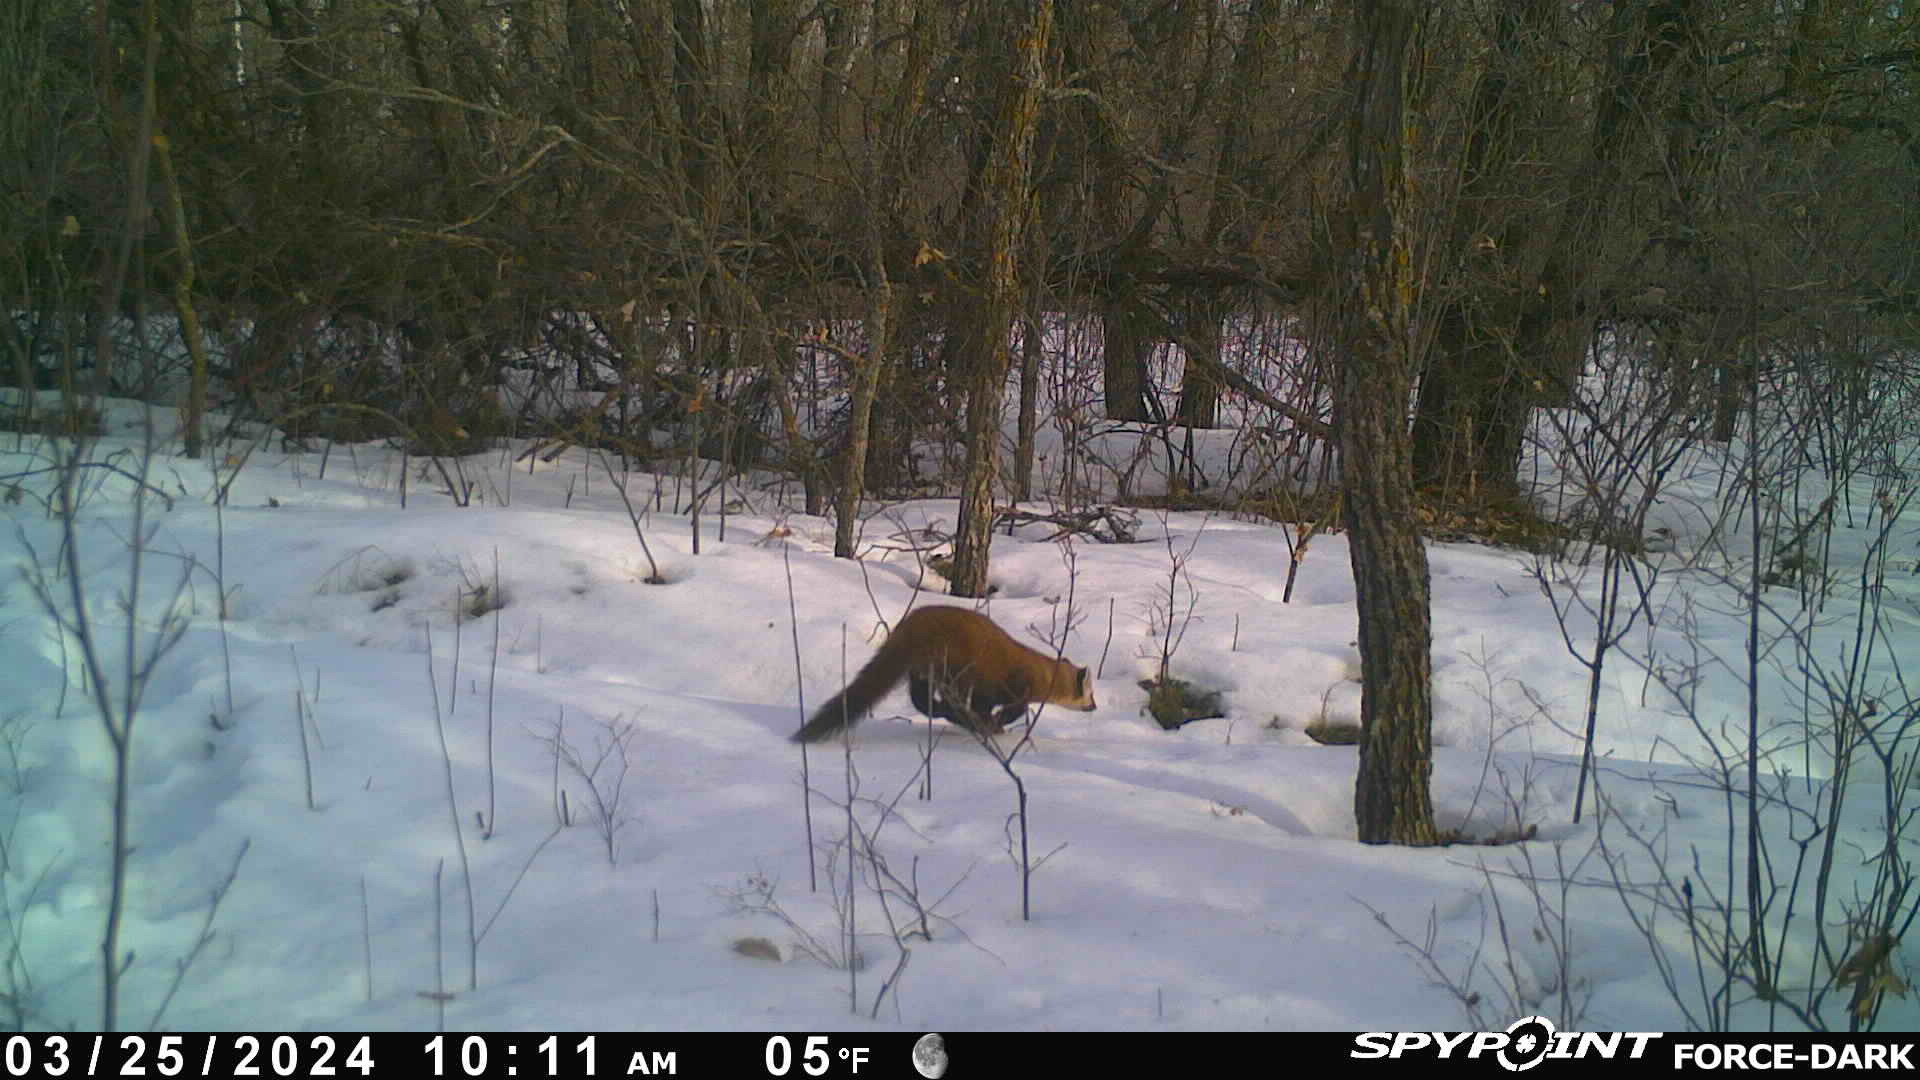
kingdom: Animalia
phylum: Chordata
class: Mammalia
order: Carnivora
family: Mustelidae
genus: Martes
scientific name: Martes americana
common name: American marten
